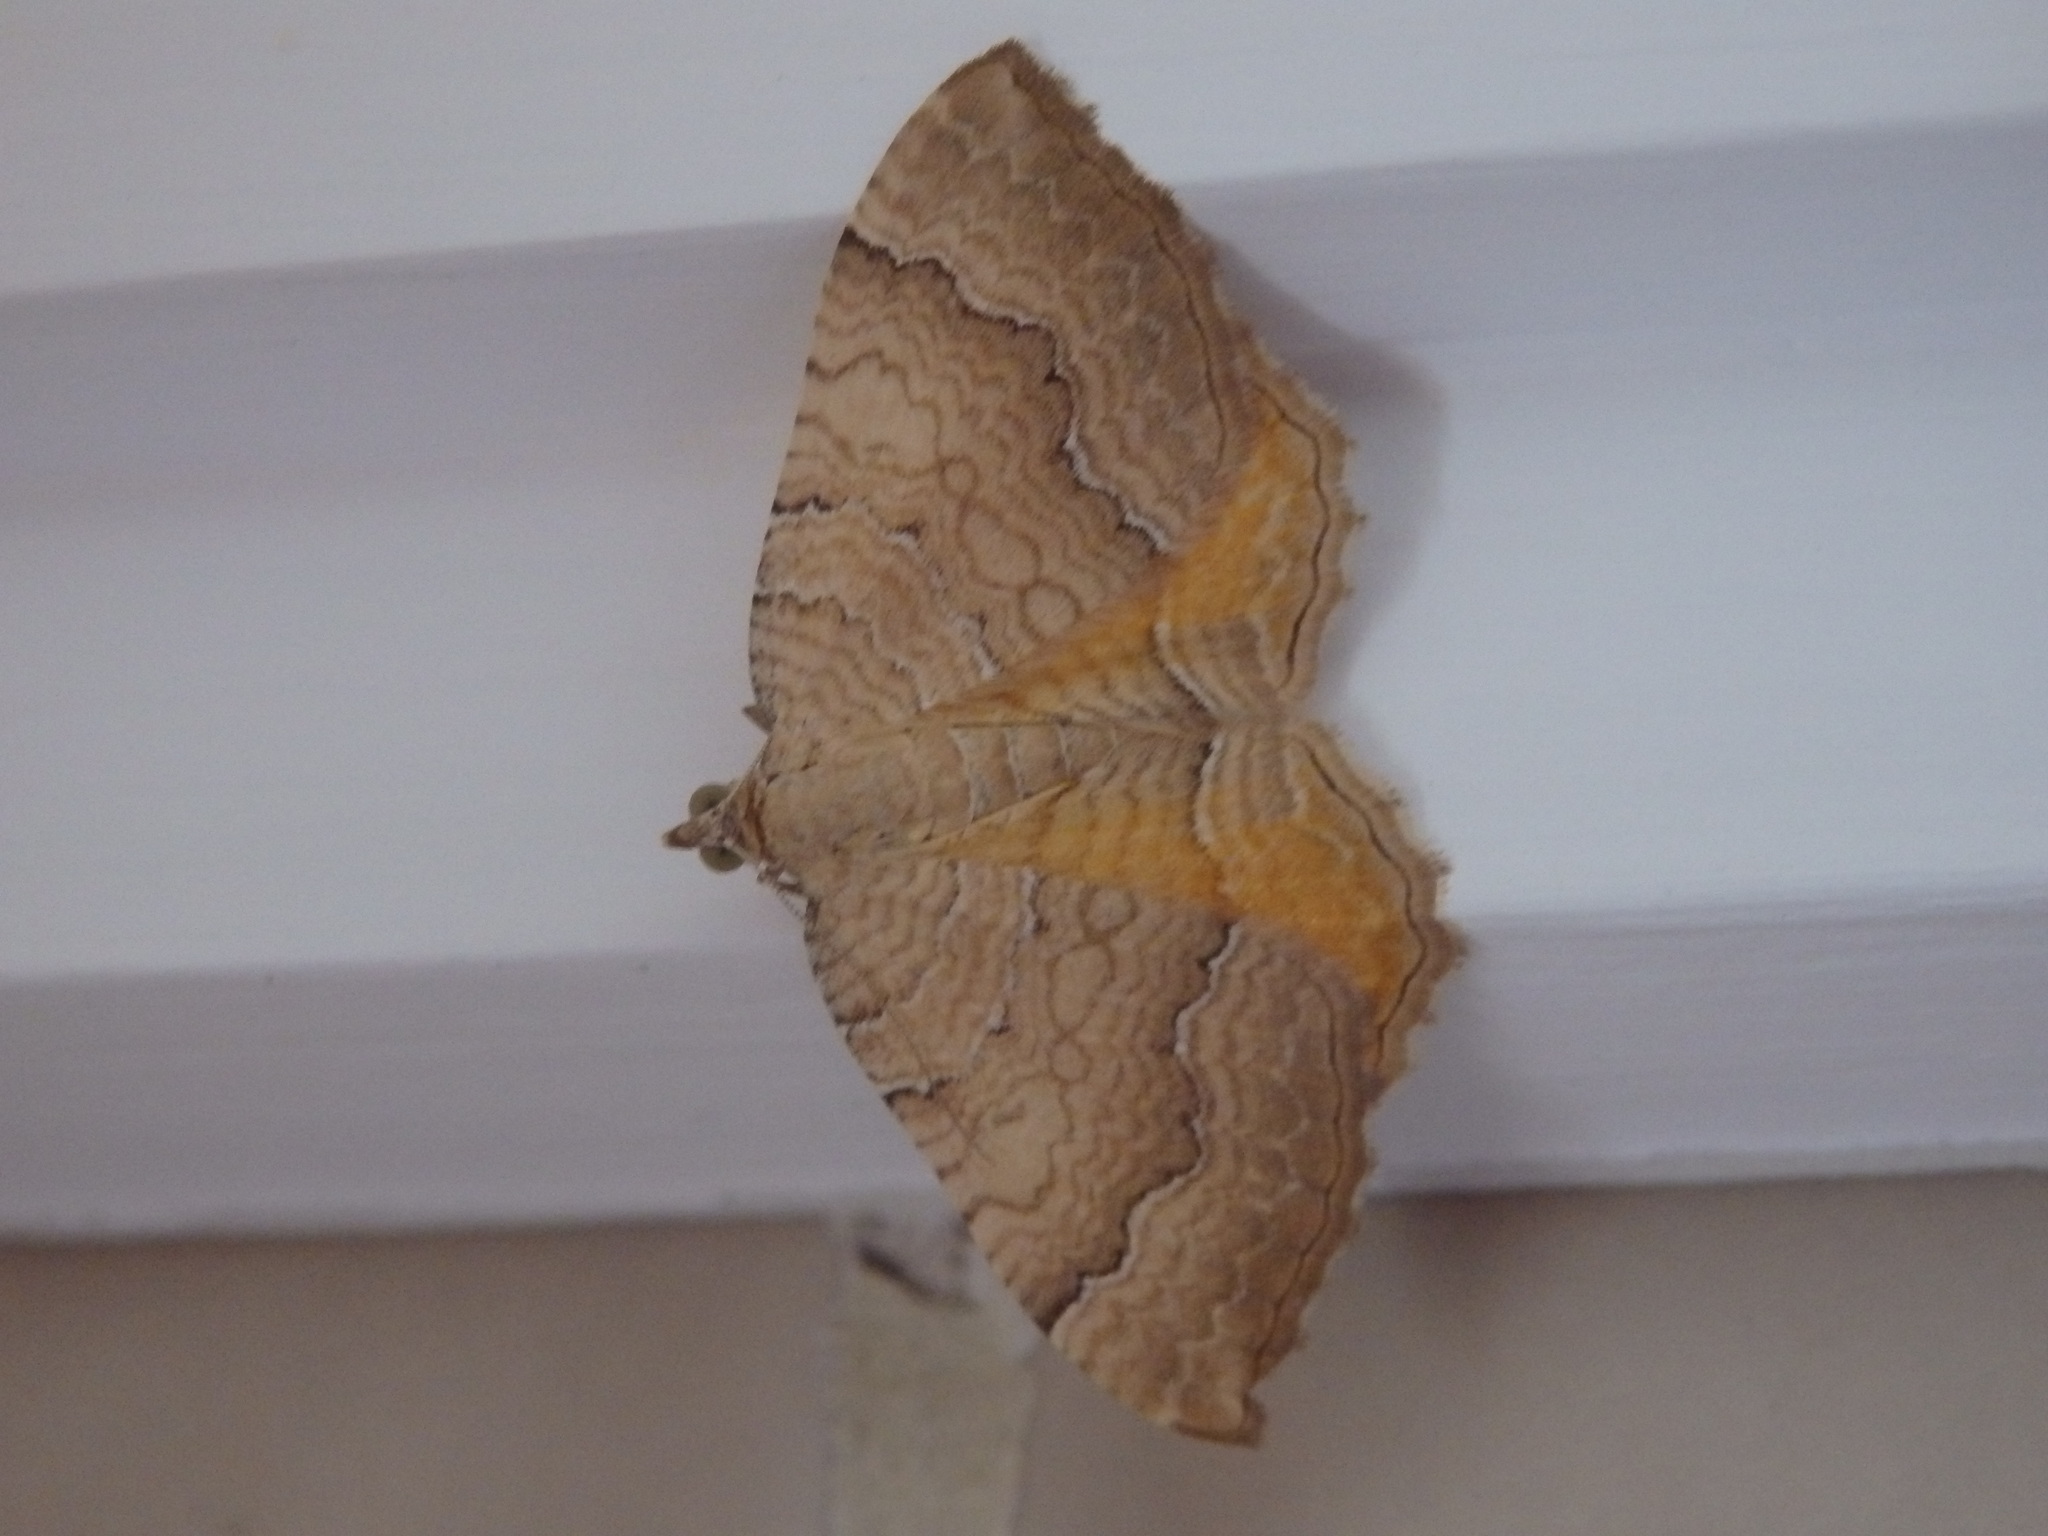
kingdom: Animalia
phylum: Arthropoda
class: Insecta
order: Lepidoptera
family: Geometridae
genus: Camptogramma
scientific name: Camptogramma bilineata
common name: Yellow shell
